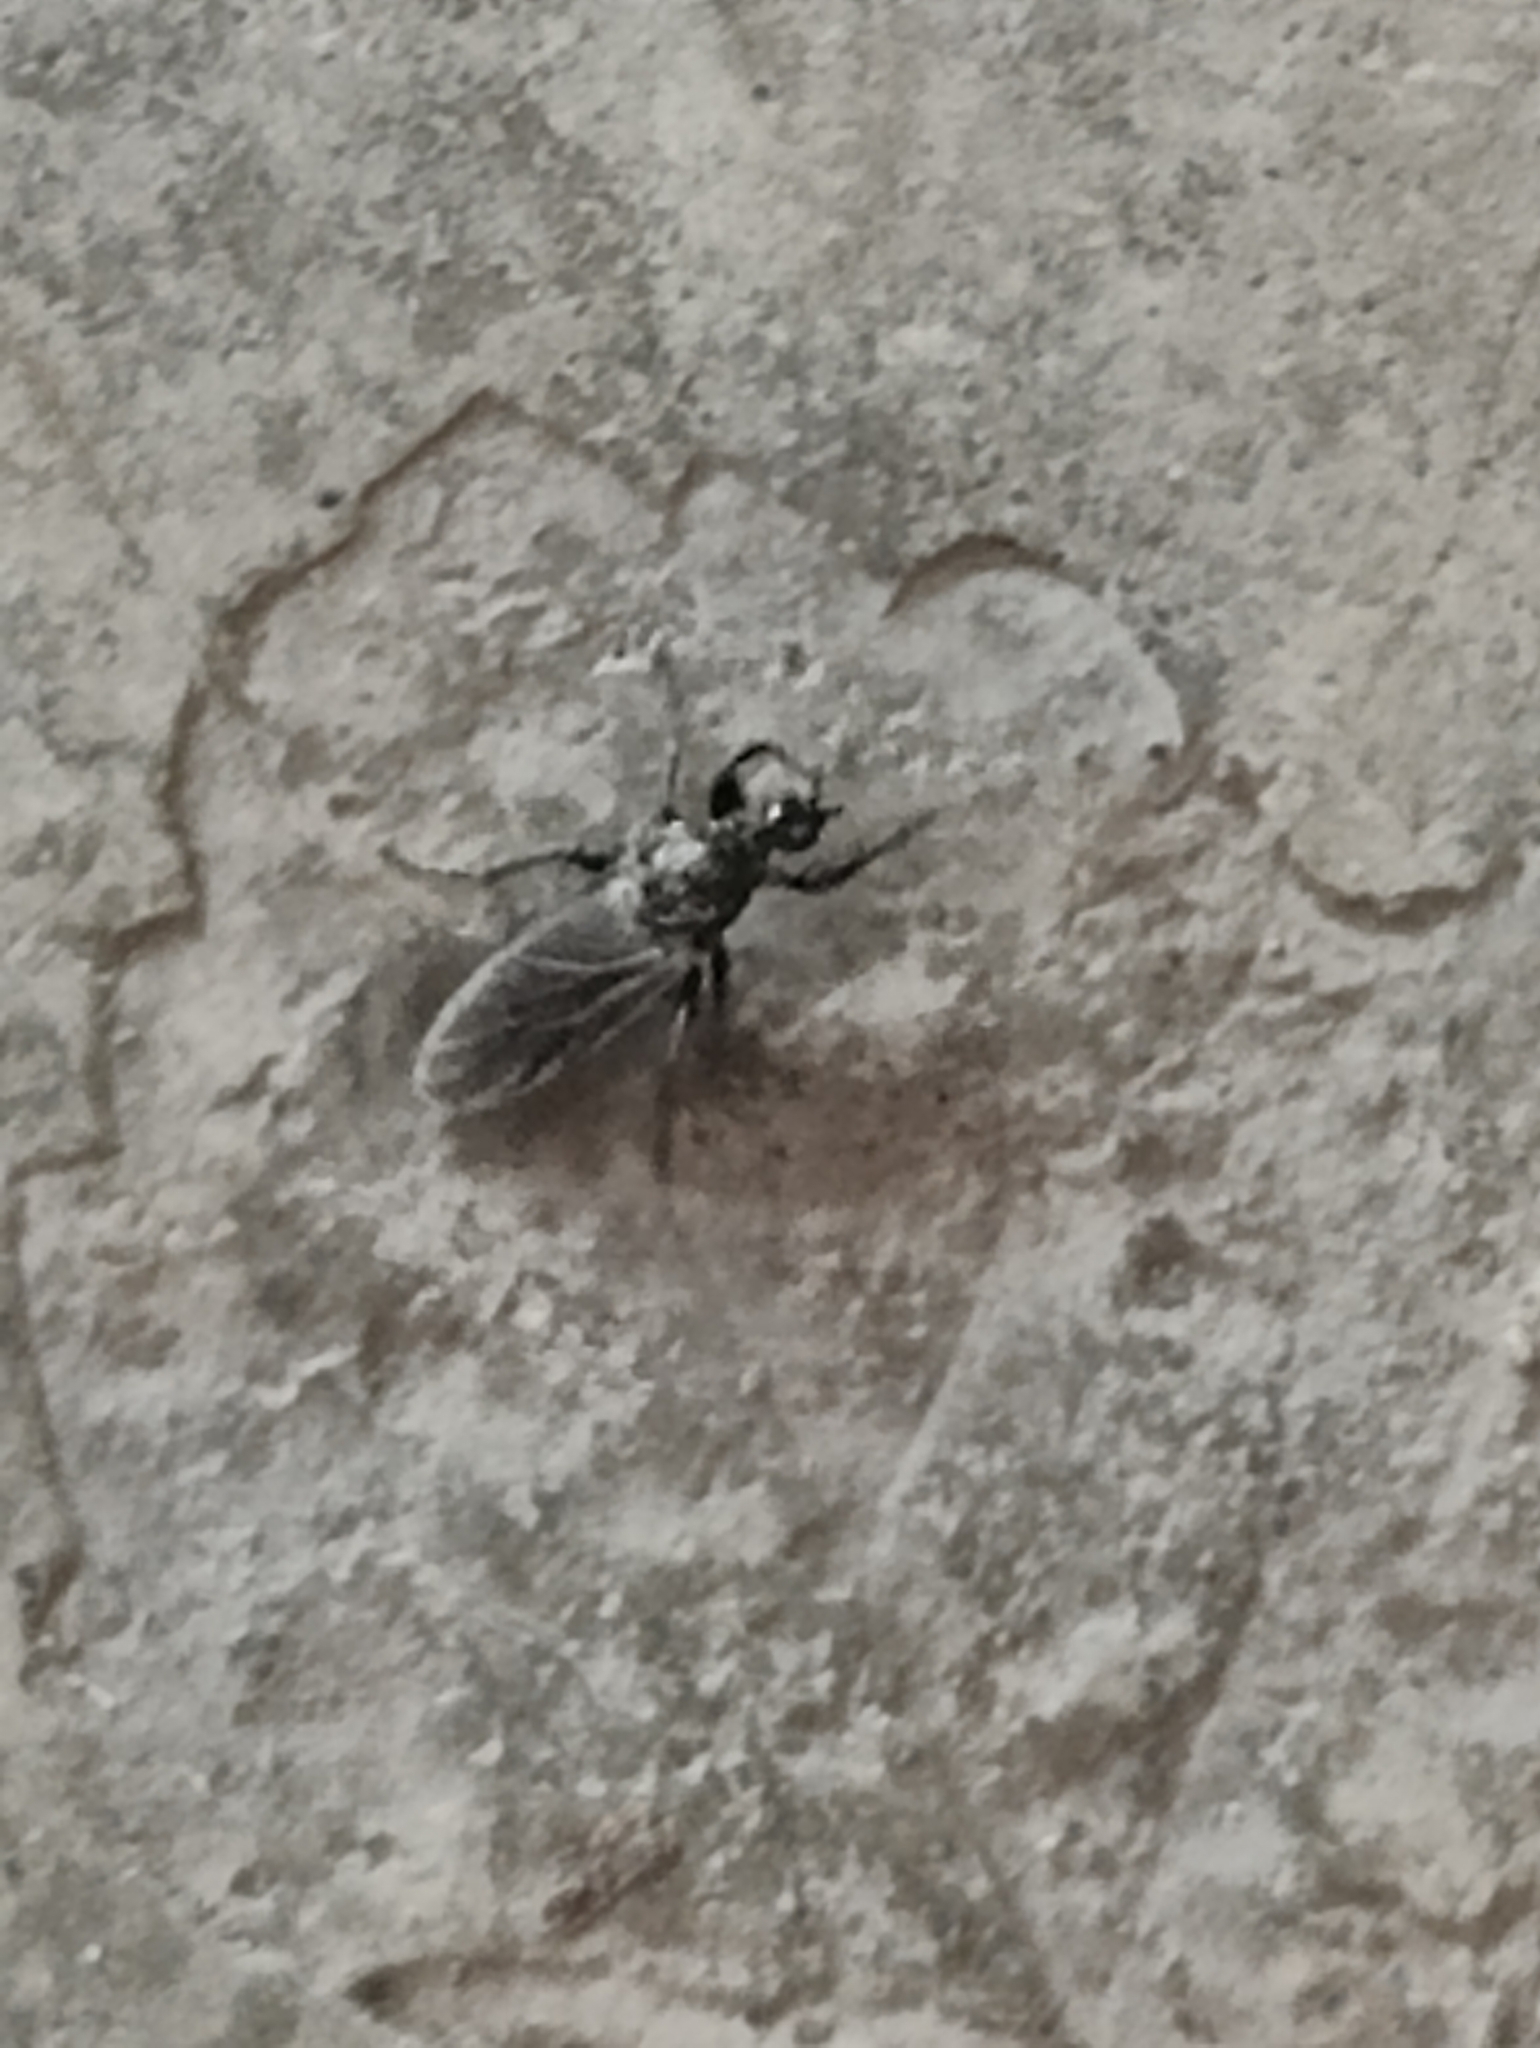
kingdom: Animalia
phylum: Arthropoda
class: Insecta
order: Diptera
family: Bibionidae
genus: Bibio
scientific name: Bibio albipennis
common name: White-winged march fly
